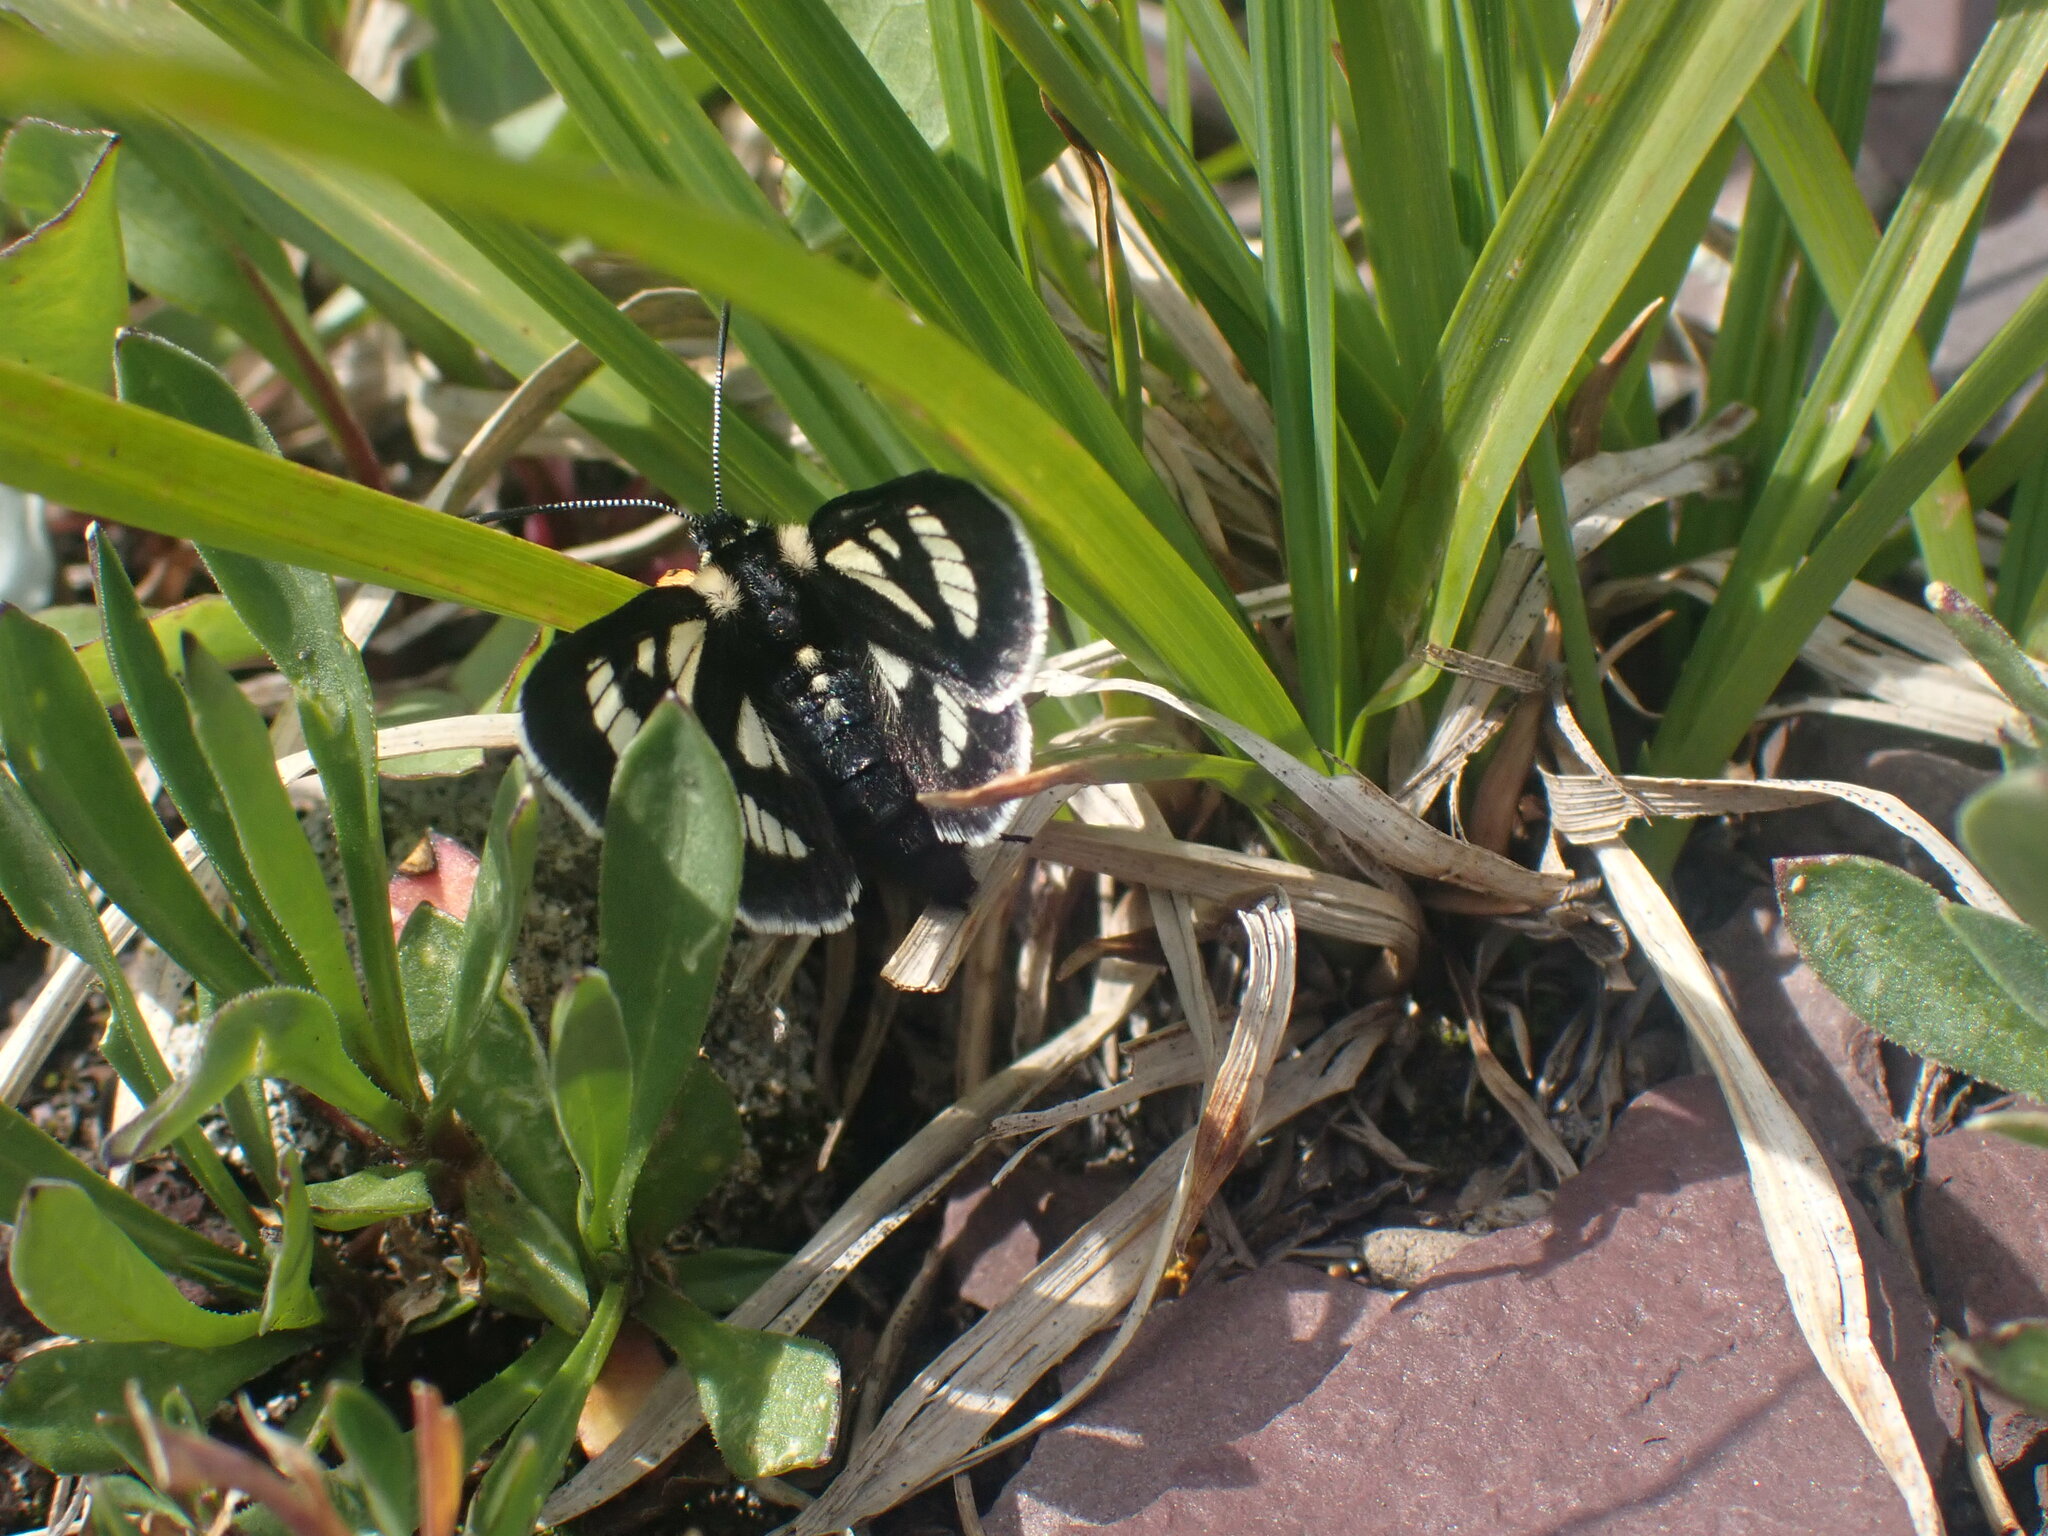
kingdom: Animalia
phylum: Arthropoda
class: Insecta
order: Lepidoptera
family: Noctuidae
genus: Alypia
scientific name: Alypia maccullochii
